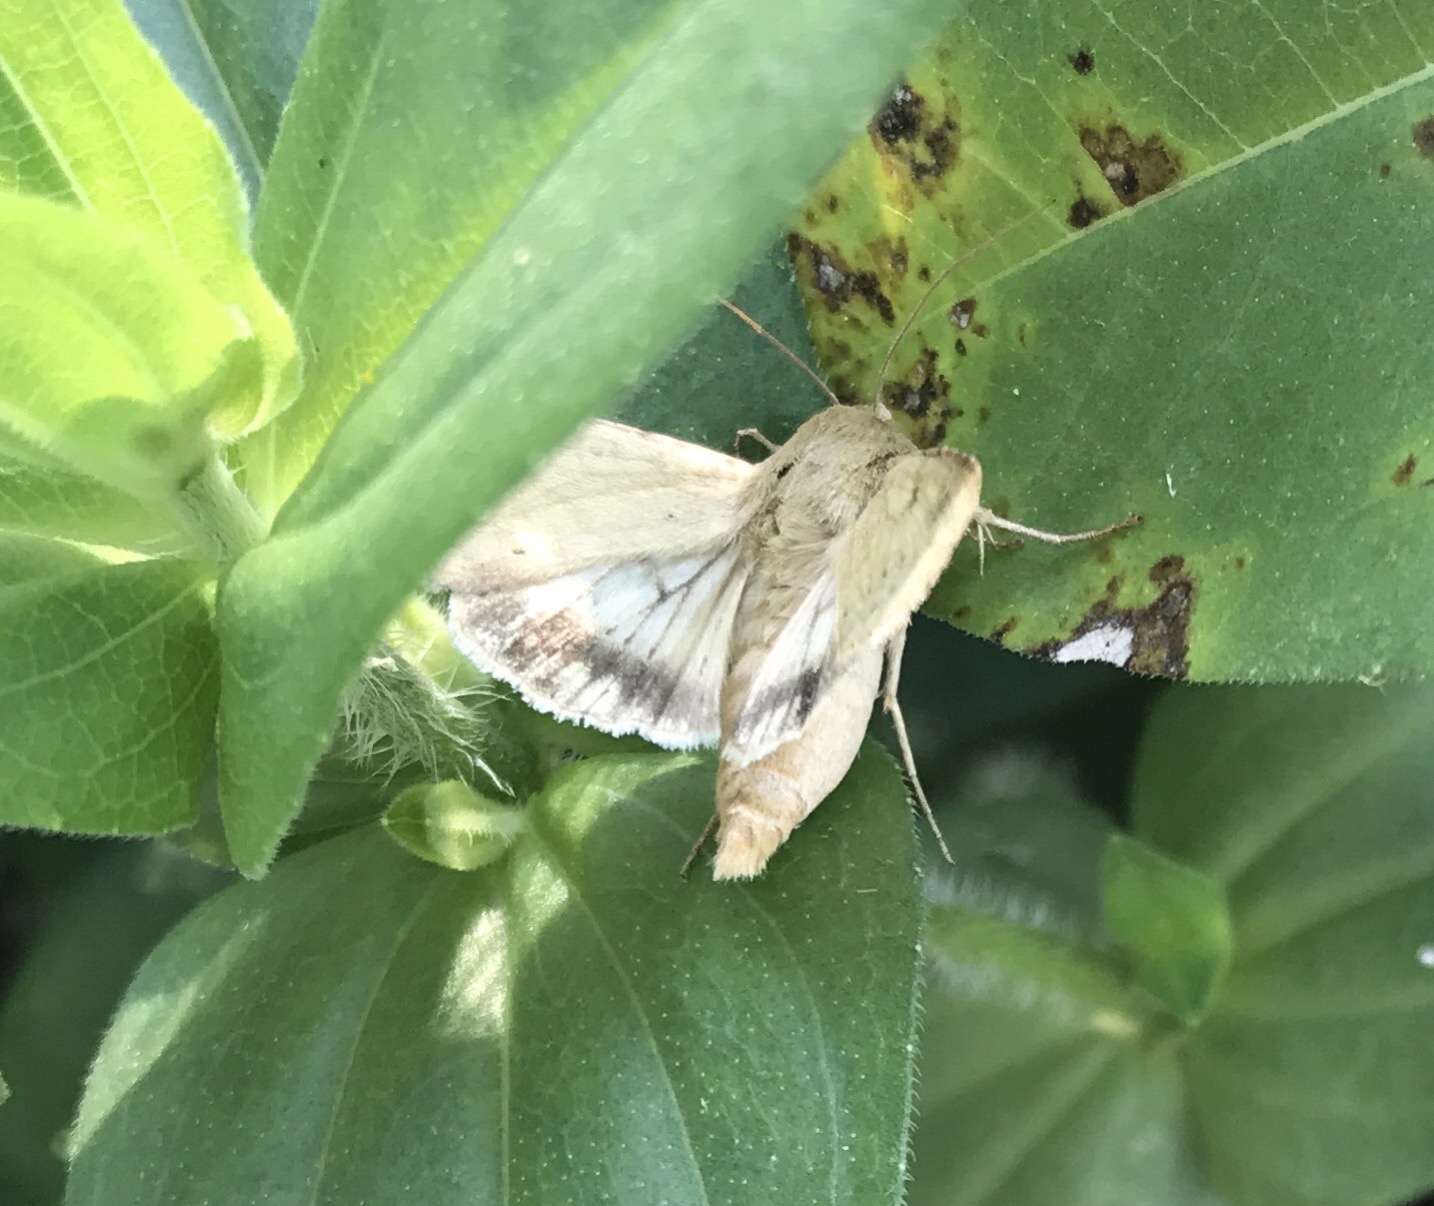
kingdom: Animalia
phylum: Arthropoda
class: Insecta
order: Lepidoptera
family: Noctuidae
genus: Helicoverpa
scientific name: Helicoverpa zea
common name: Bollworm
